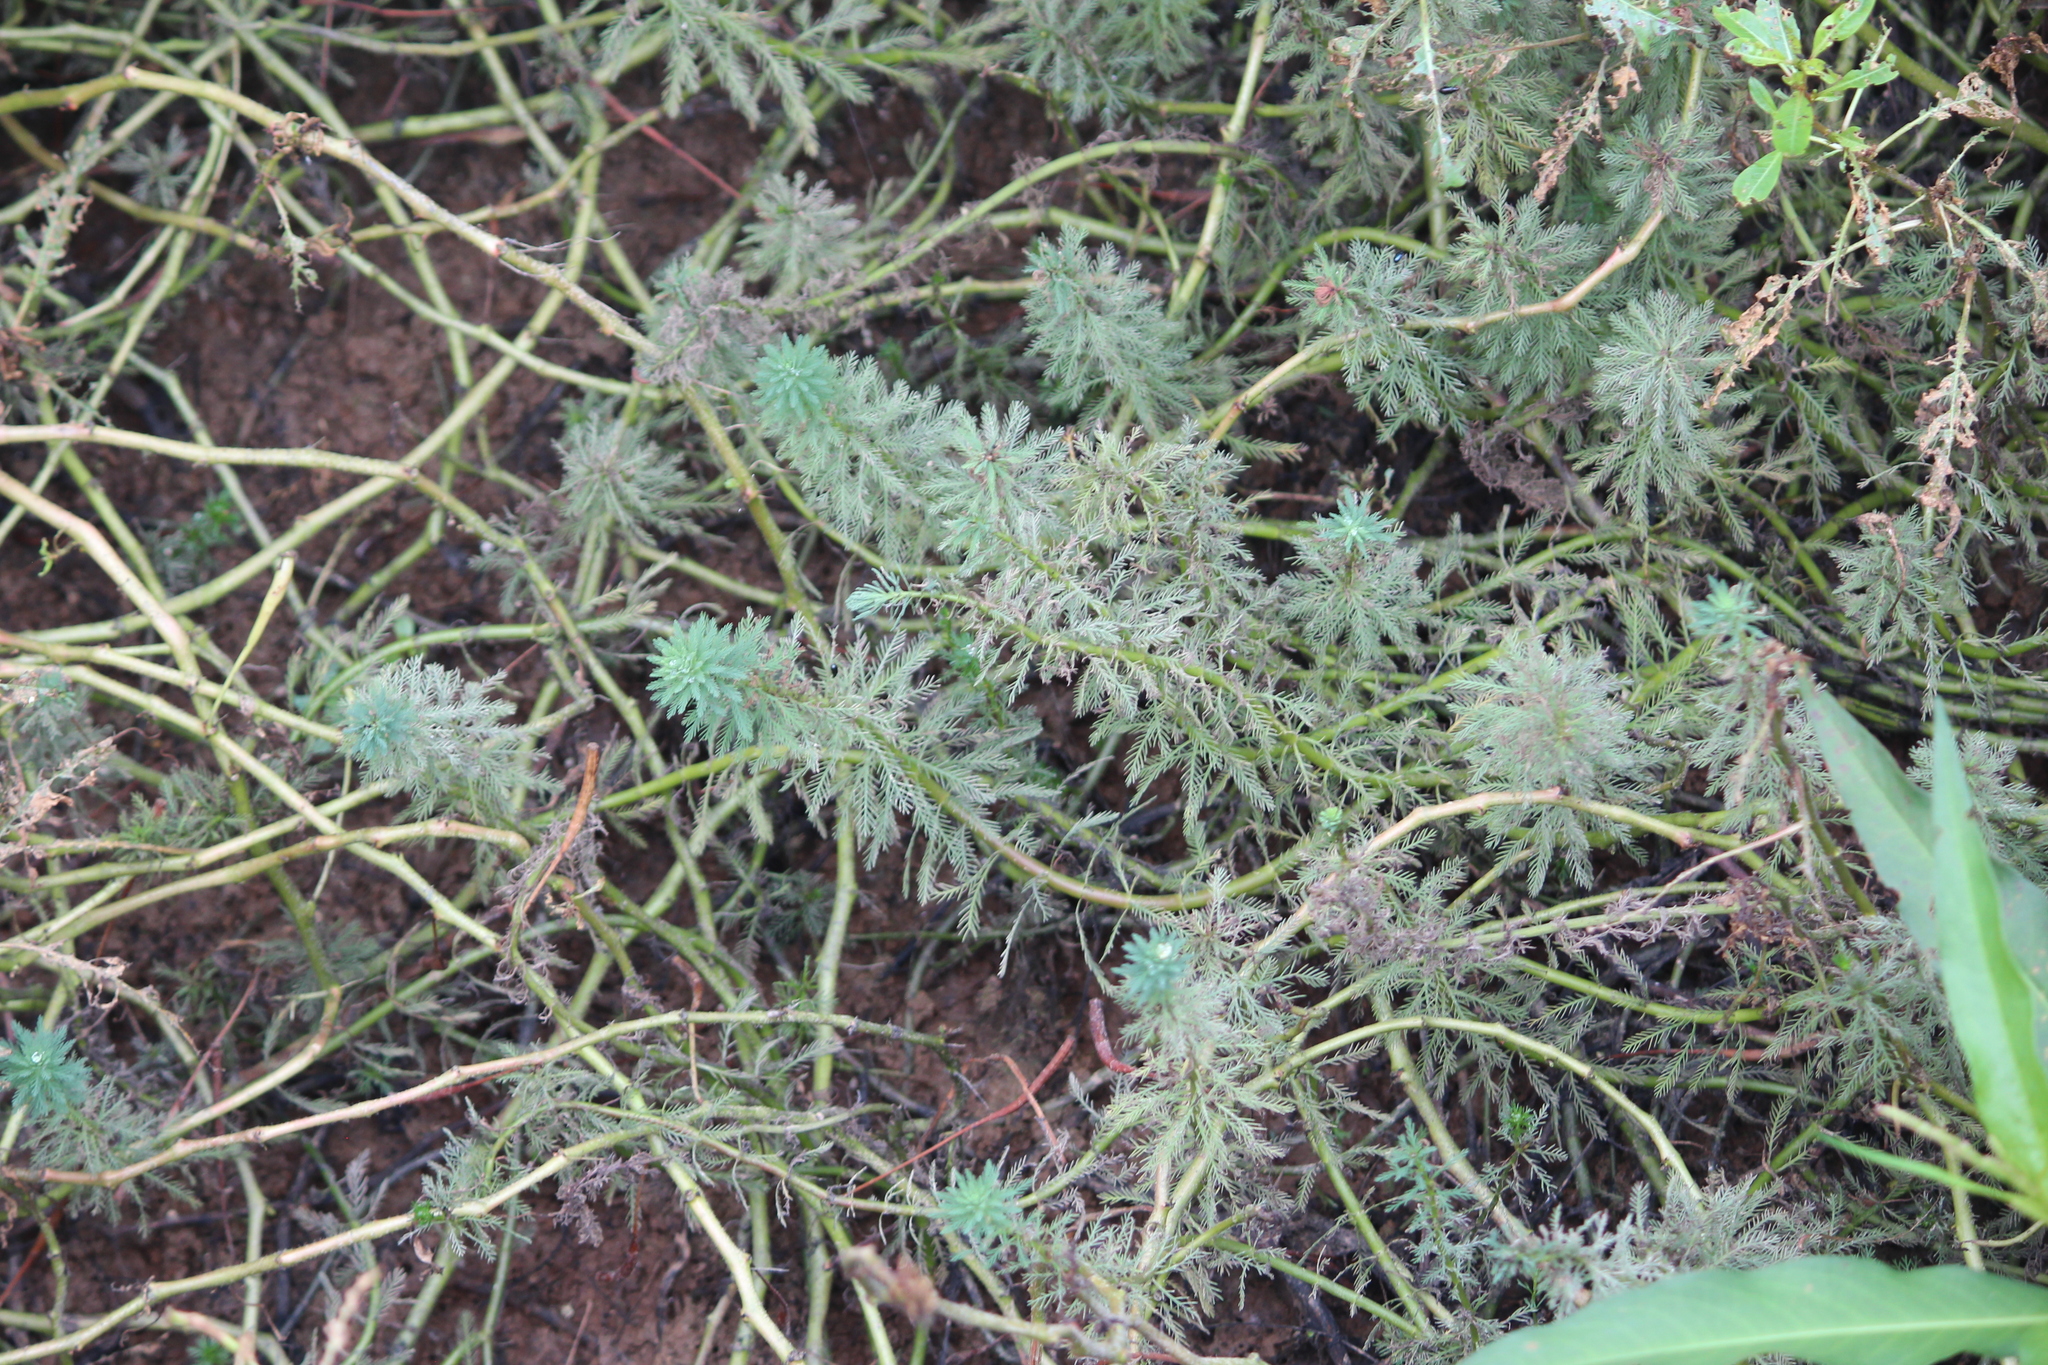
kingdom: Plantae
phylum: Tracheophyta
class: Magnoliopsida
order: Saxifragales
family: Haloragaceae
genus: Myriophyllum
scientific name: Myriophyllum aquaticum
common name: Parrot's feather
